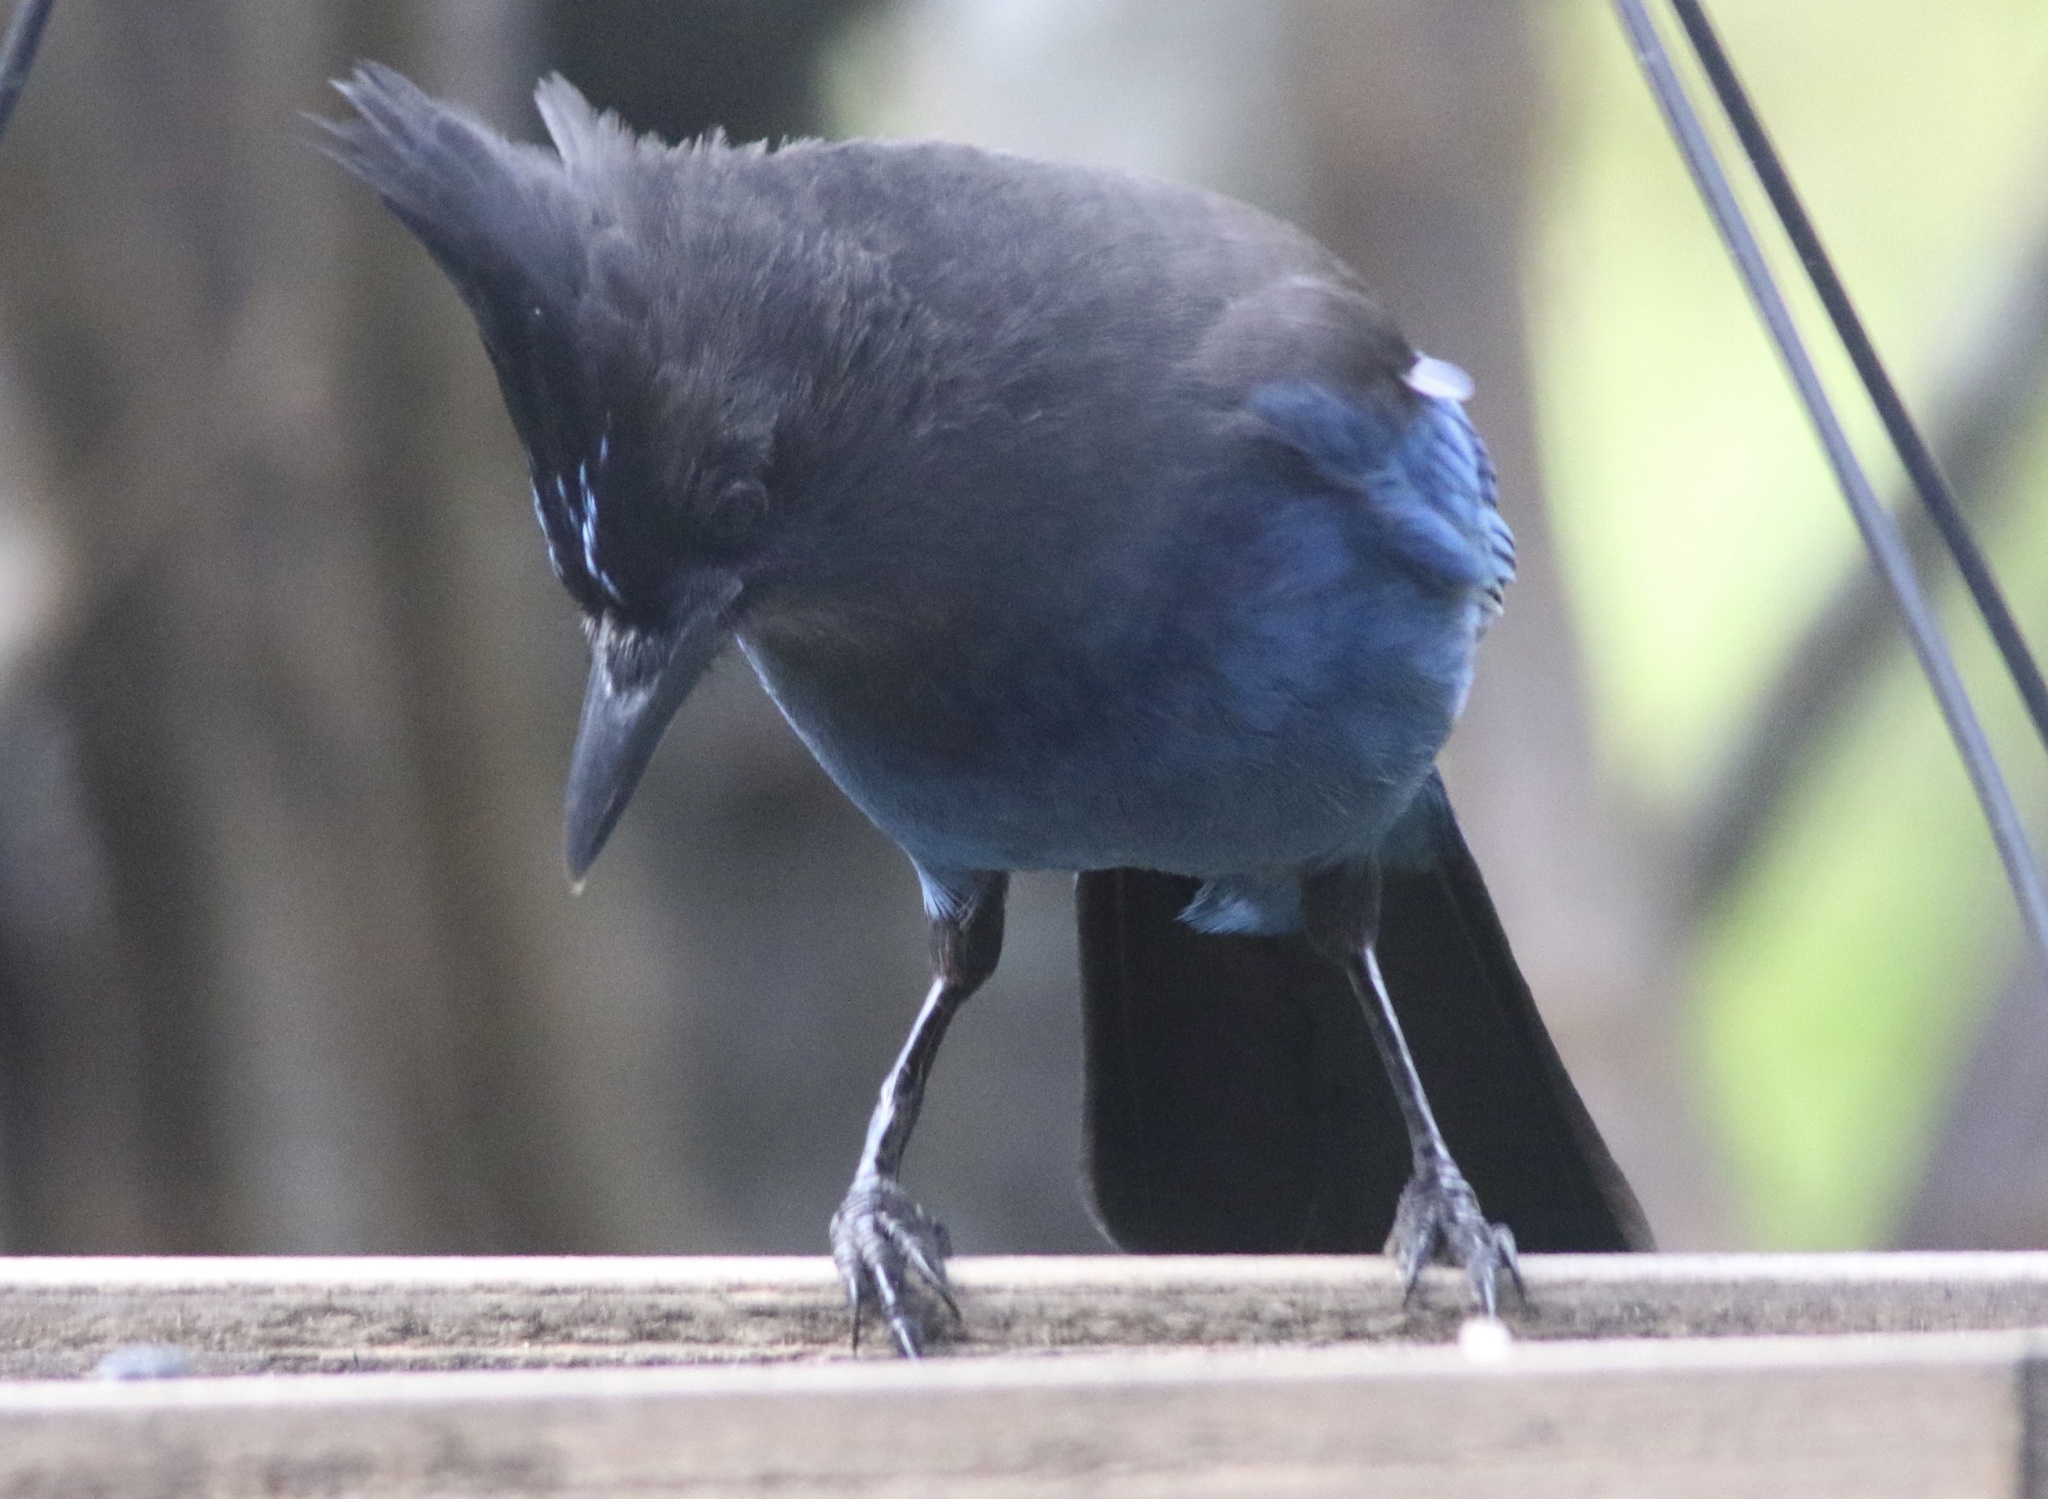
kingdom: Animalia
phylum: Chordata
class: Aves
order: Passeriformes
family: Corvidae
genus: Cyanocitta
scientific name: Cyanocitta stelleri
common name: Steller's jay
